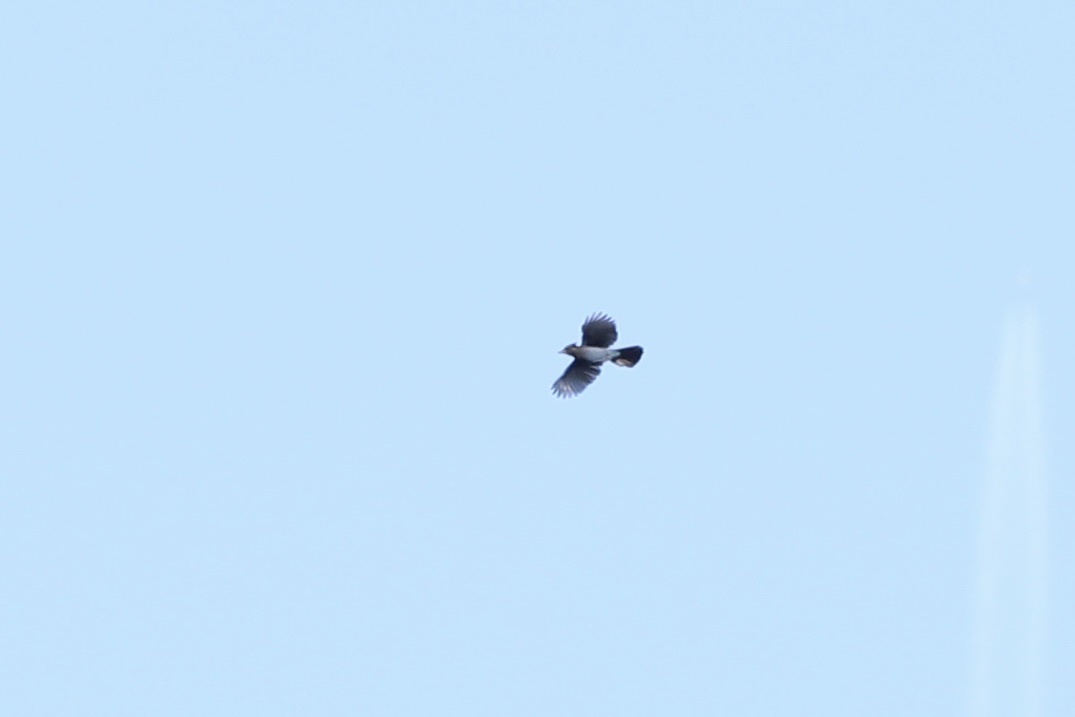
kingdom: Animalia
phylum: Chordata
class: Aves
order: Passeriformes
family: Corvidae
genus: Cyanocitta
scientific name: Cyanocitta stelleri
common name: Steller's jay
